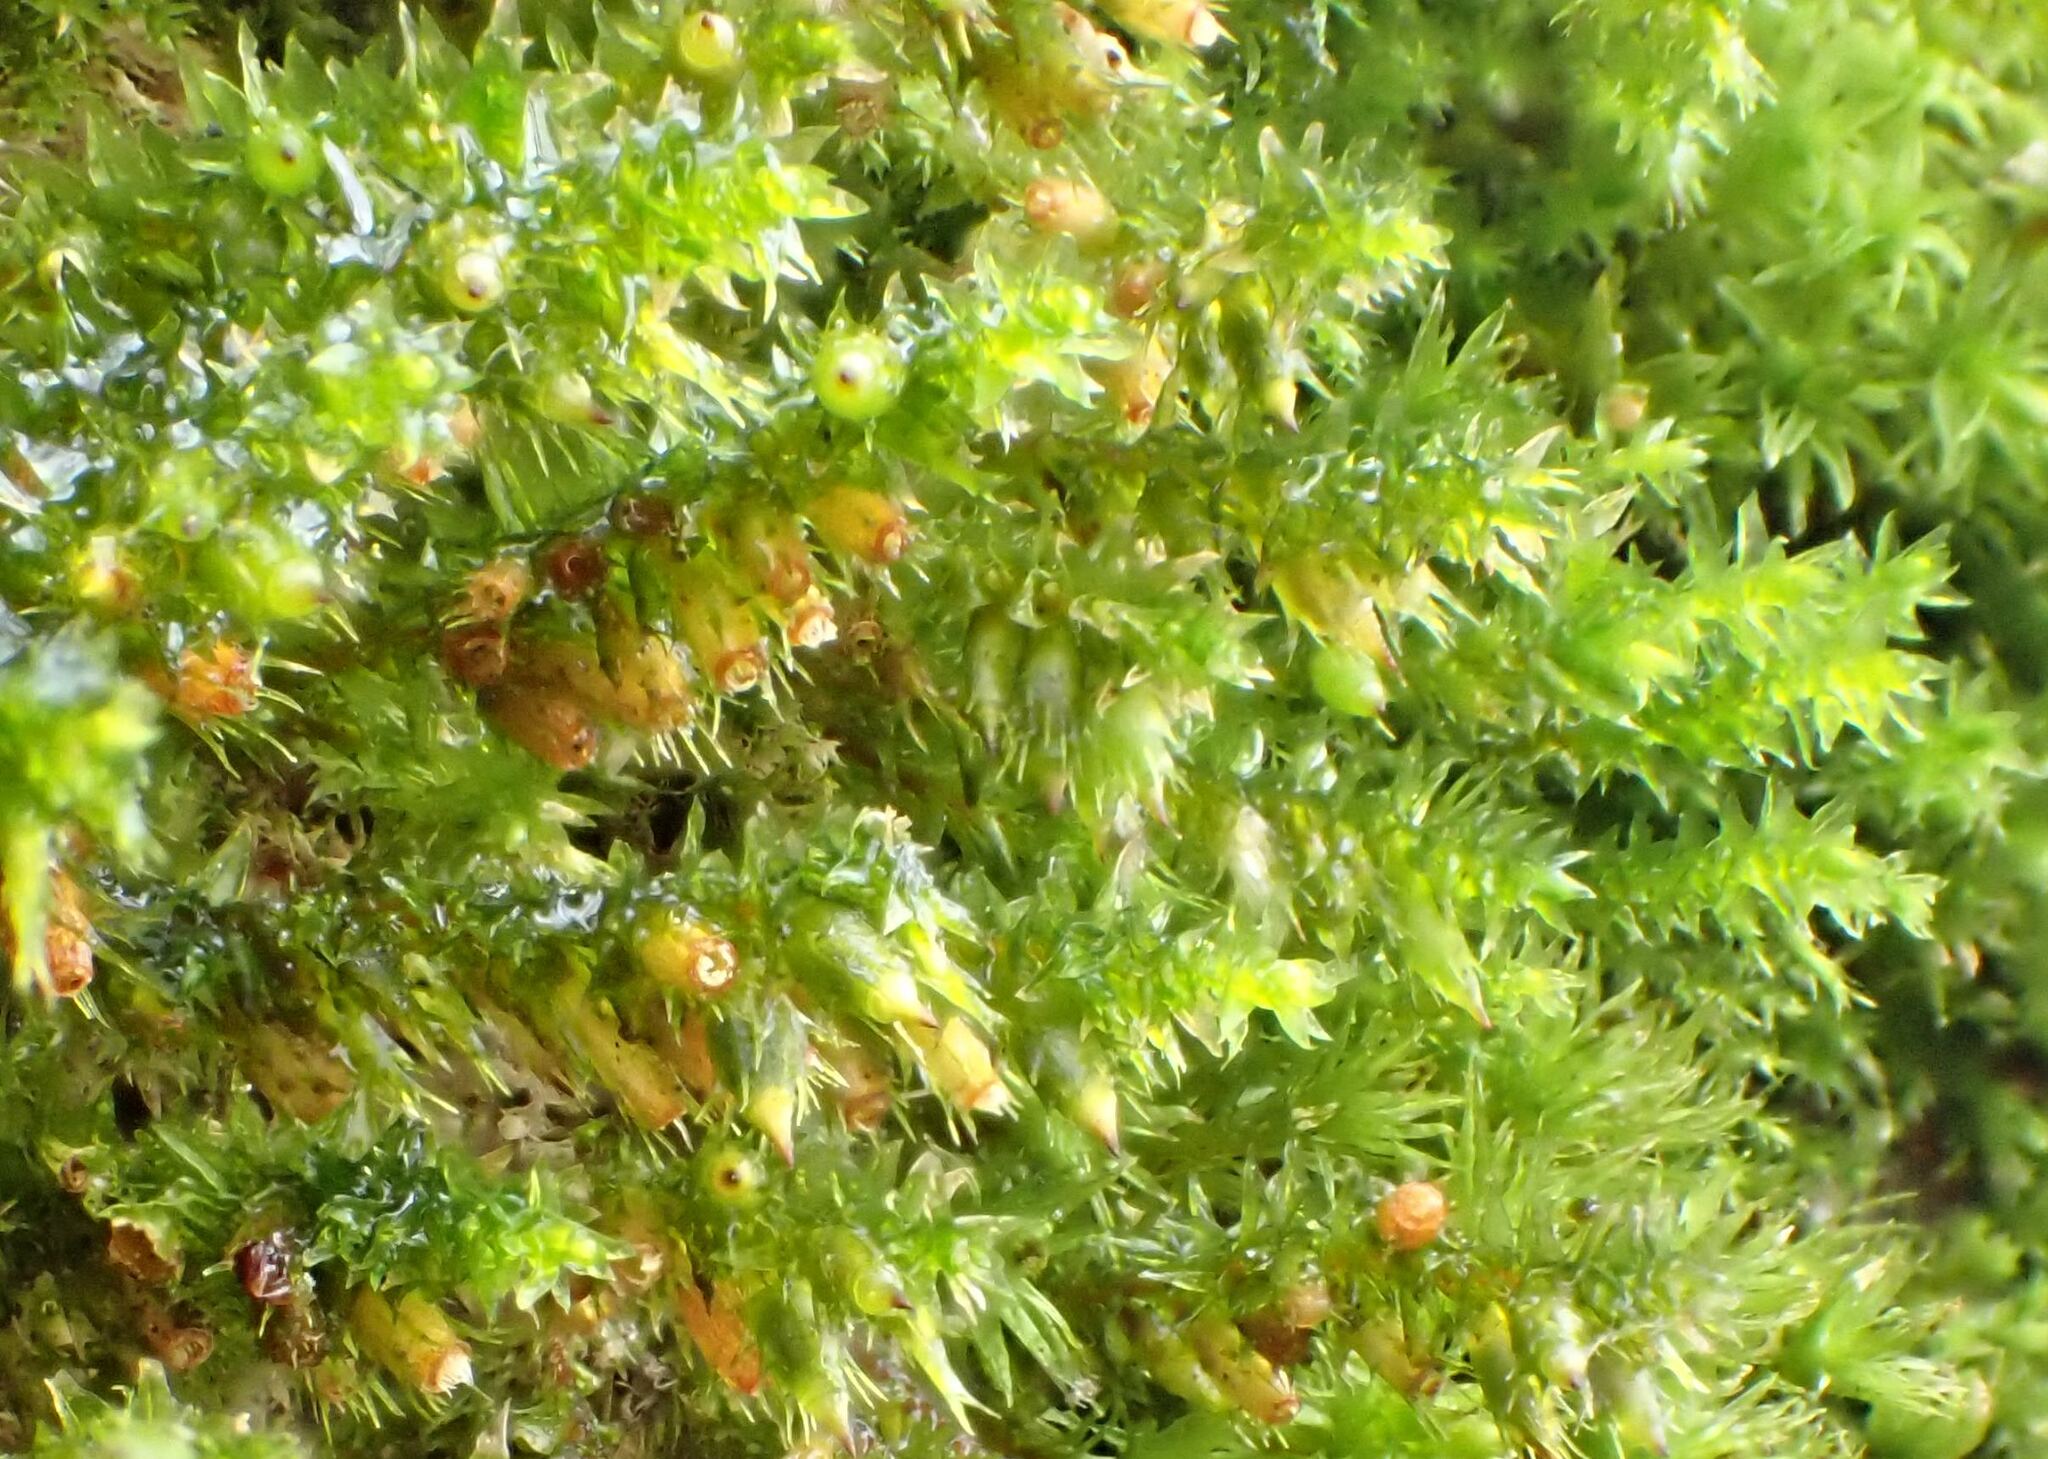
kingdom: Plantae
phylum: Bryophyta
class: Bryopsida
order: Hypnales
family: Cryphaeaceae
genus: Cryphaea
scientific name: Cryphaea heteromalla
